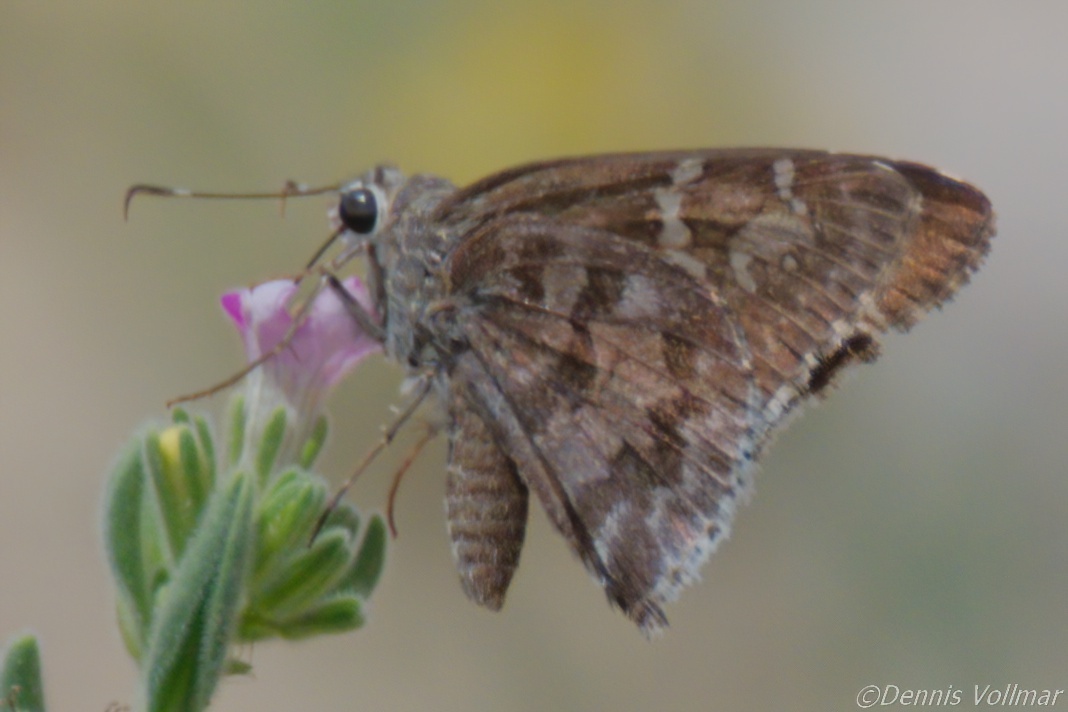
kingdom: Animalia
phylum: Arthropoda
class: Insecta
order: Lepidoptera
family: Hesperiidae
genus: Cogia
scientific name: Cogia hippalus
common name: Acacia skipper
